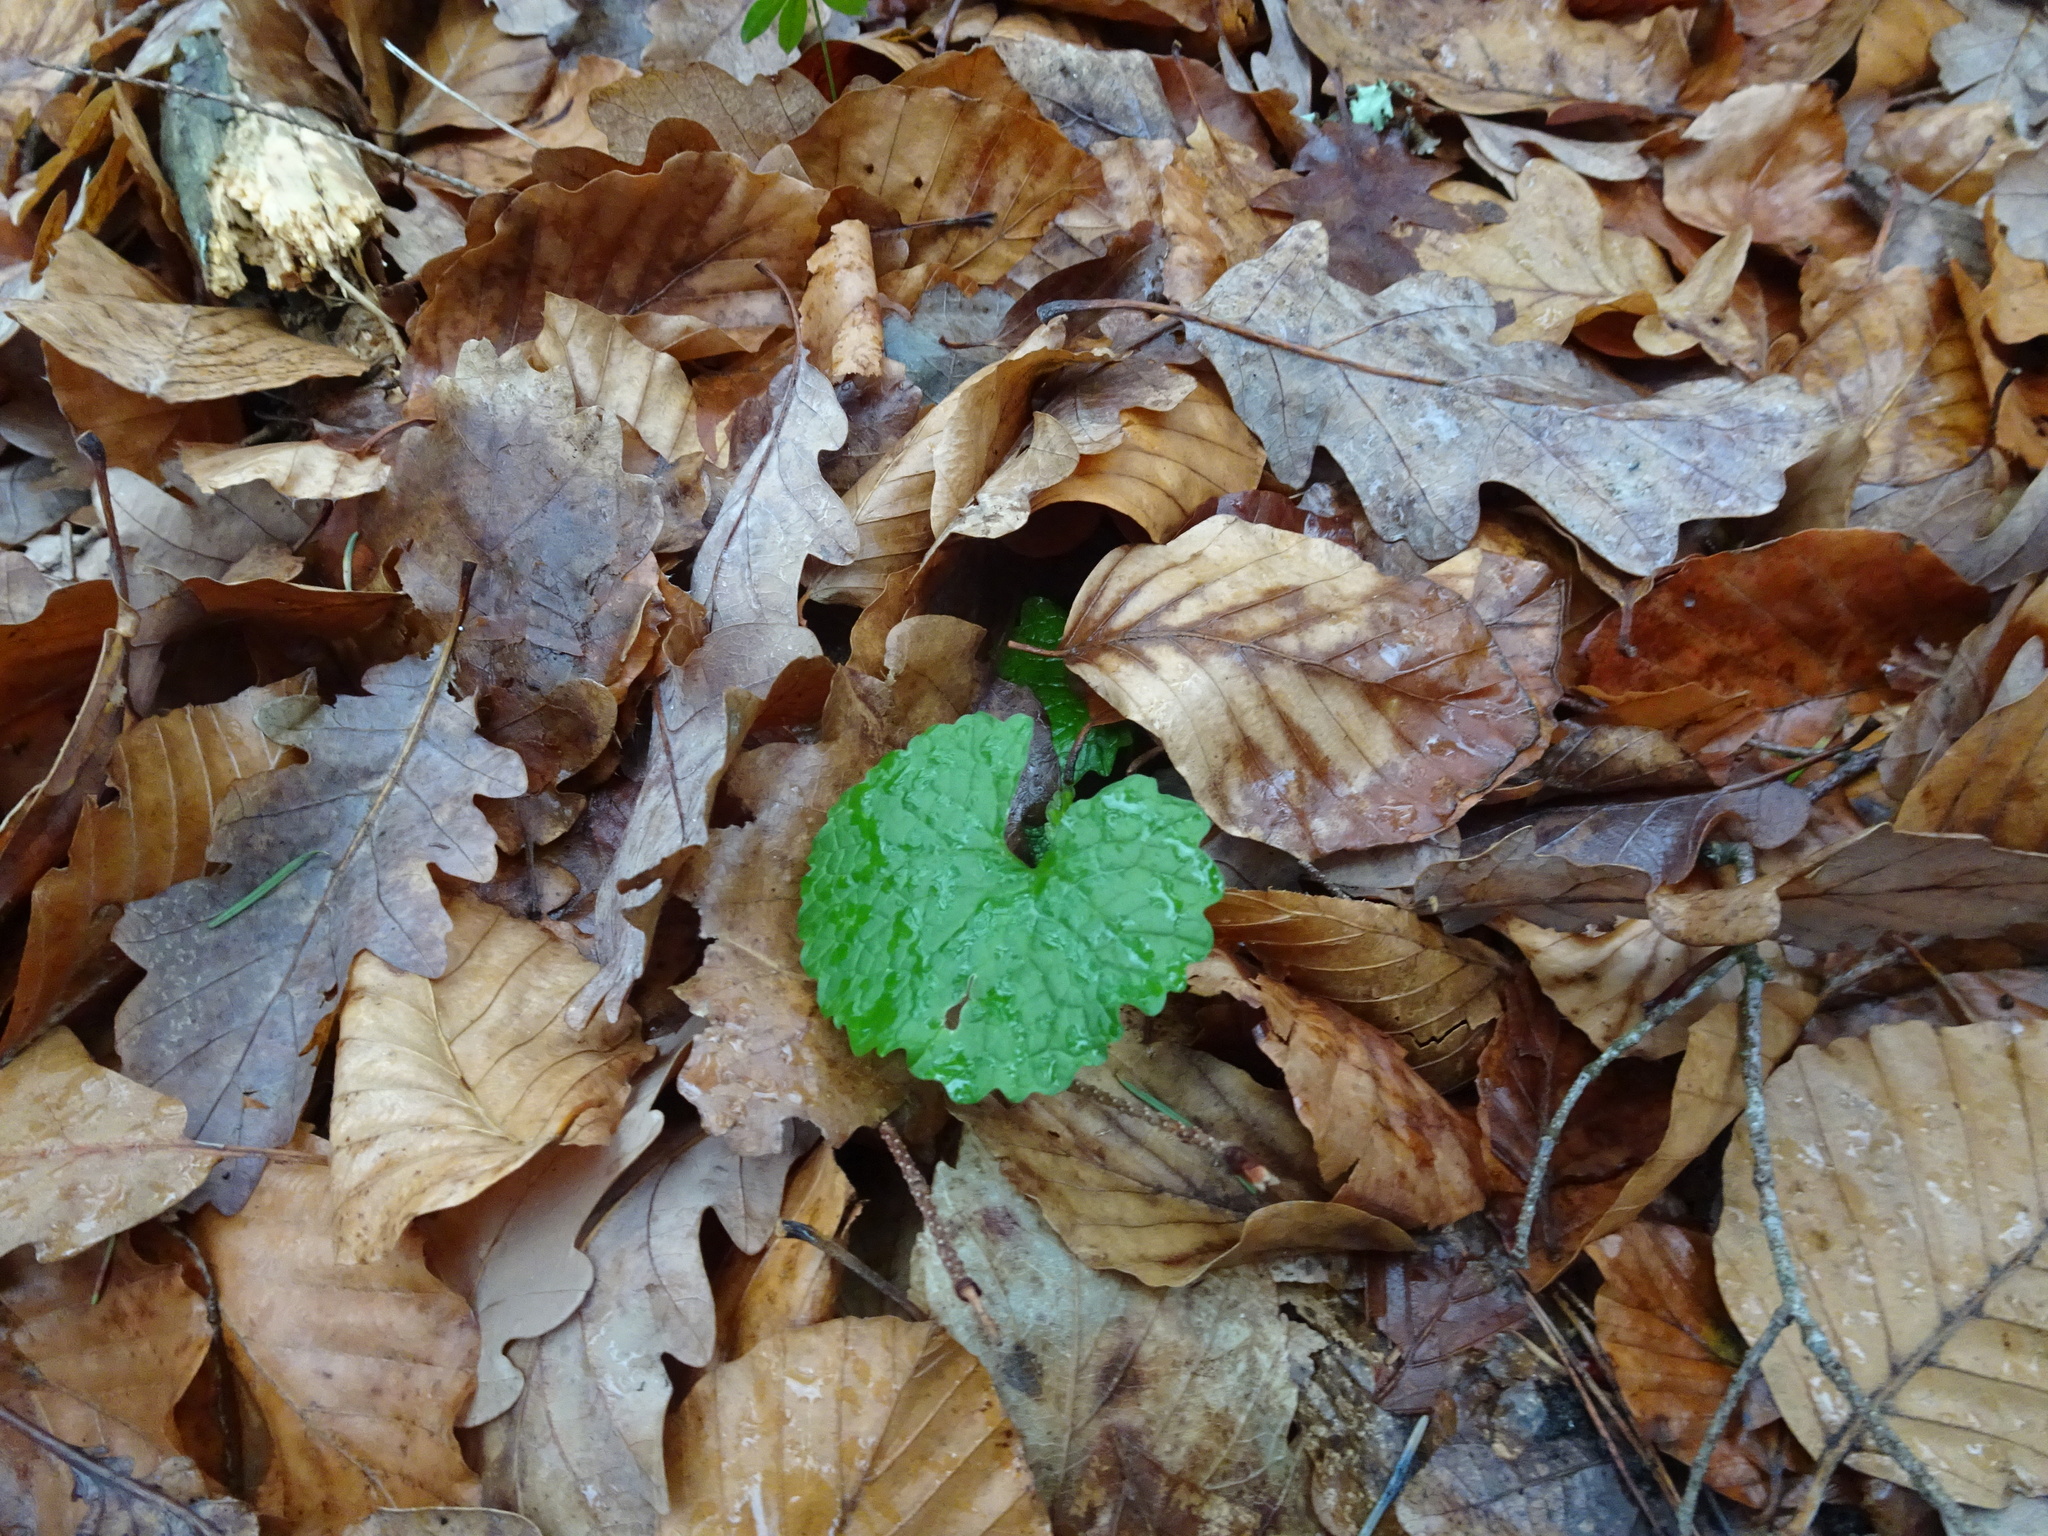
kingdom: Plantae
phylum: Tracheophyta
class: Magnoliopsida
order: Brassicales
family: Brassicaceae
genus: Alliaria
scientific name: Alliaria petiolata
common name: Garlic mustard
